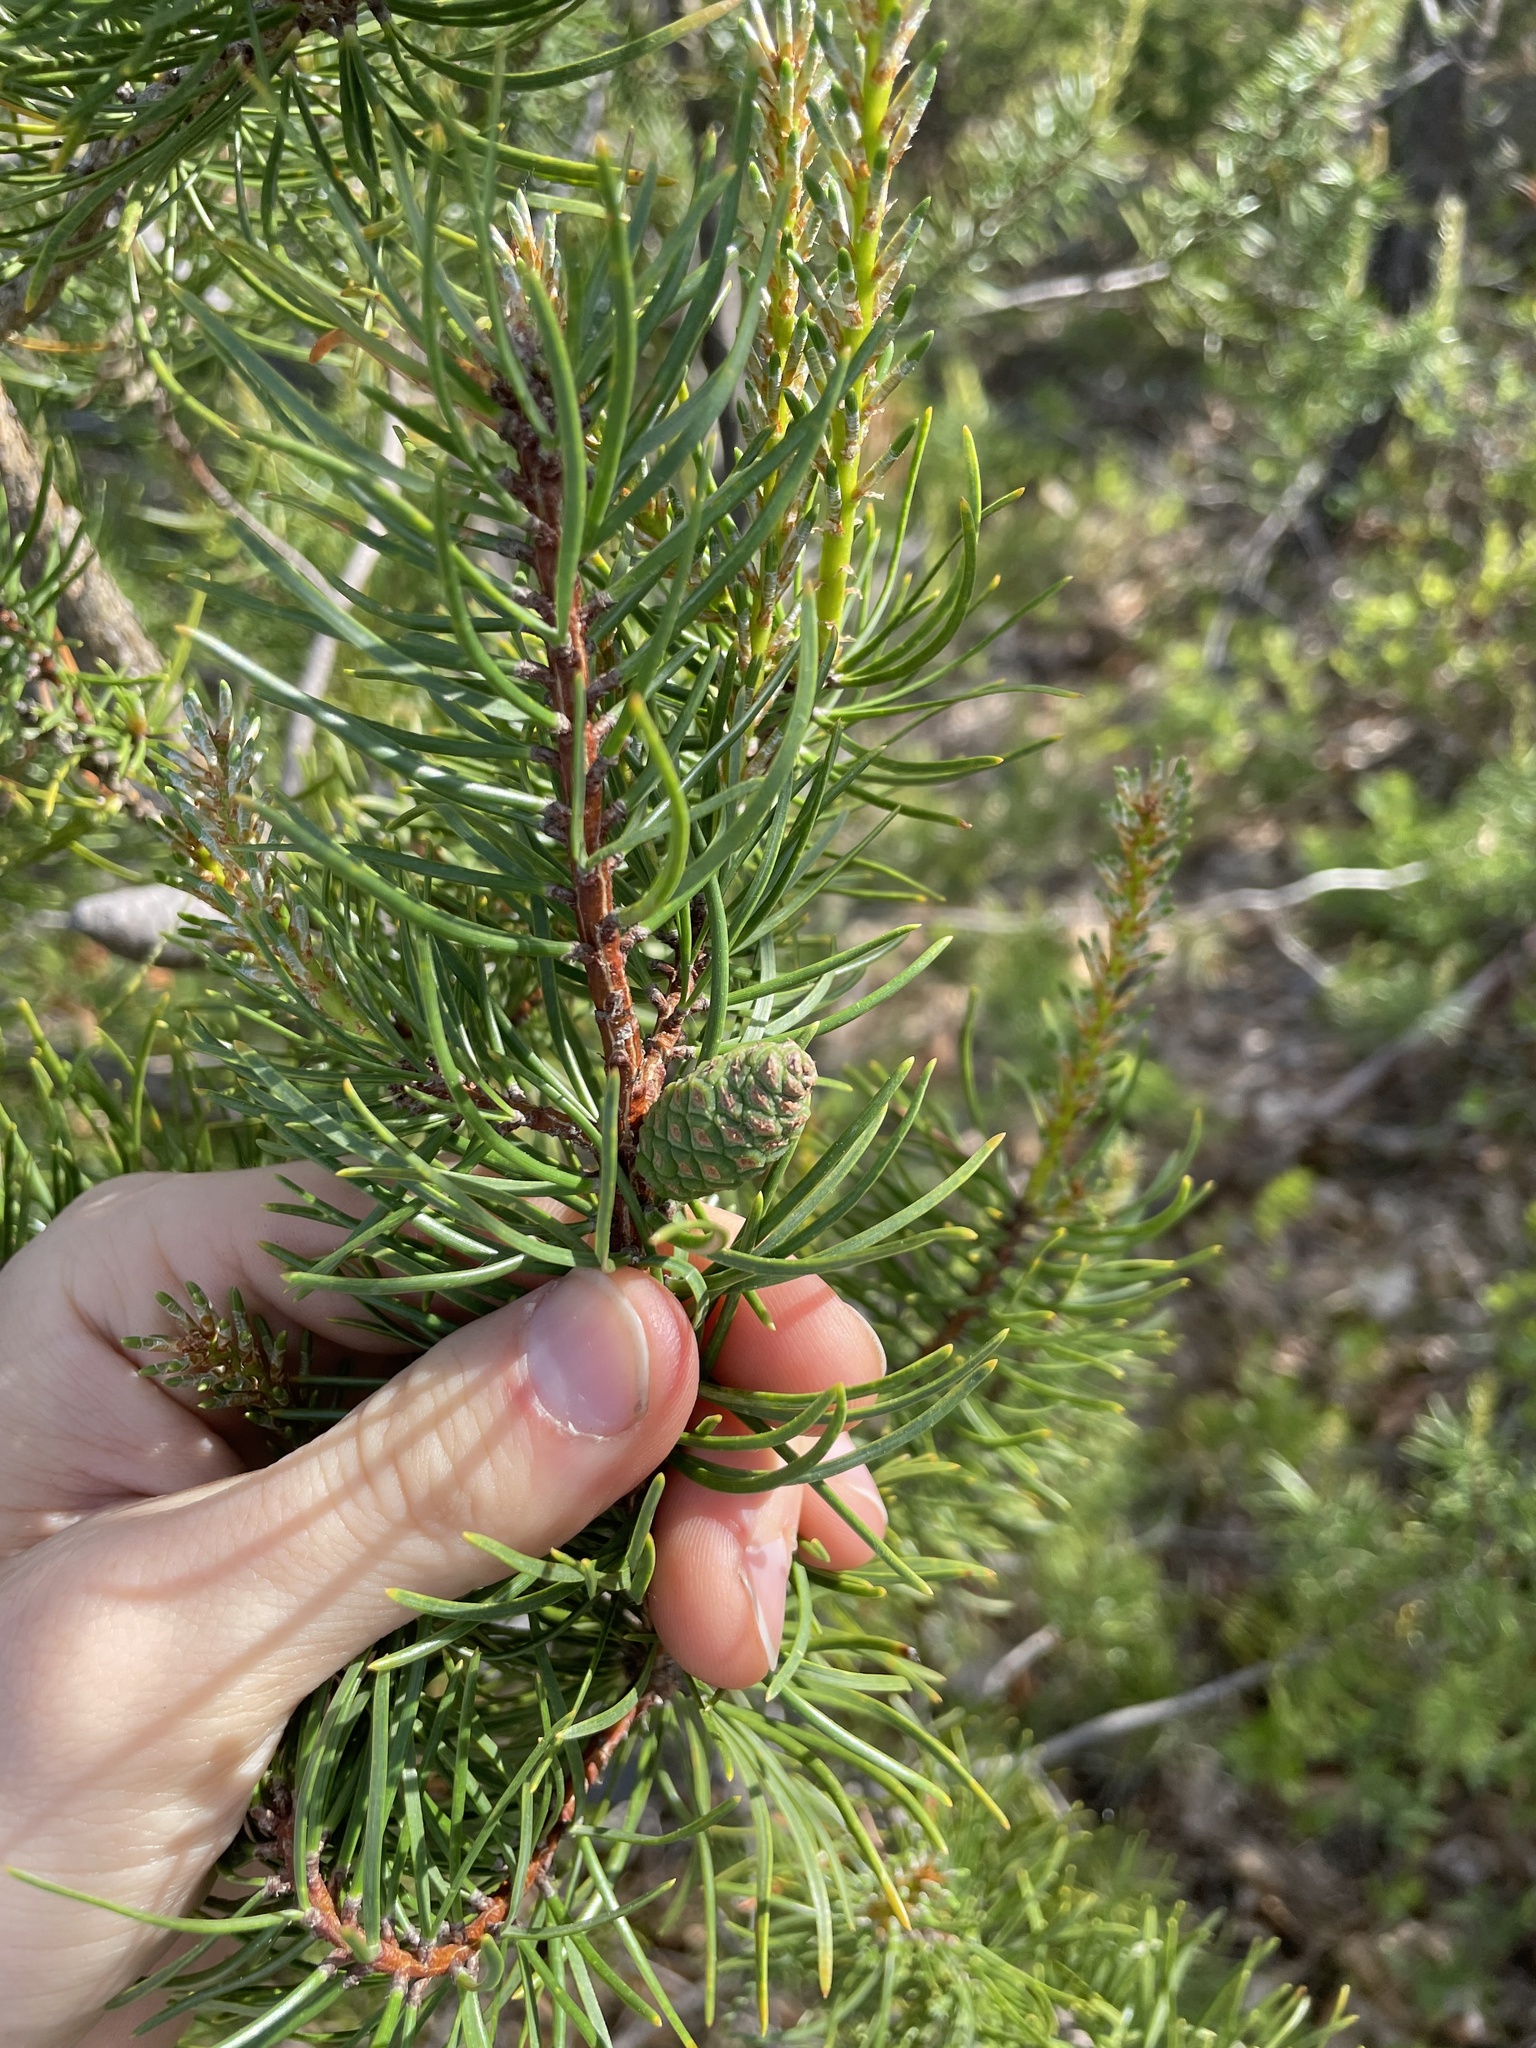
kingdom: Plantae
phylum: Tracheophyta
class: Pinopsida
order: Pinales
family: Pinaceae
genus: Pinus
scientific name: Pinus banksiana
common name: Jack pine
